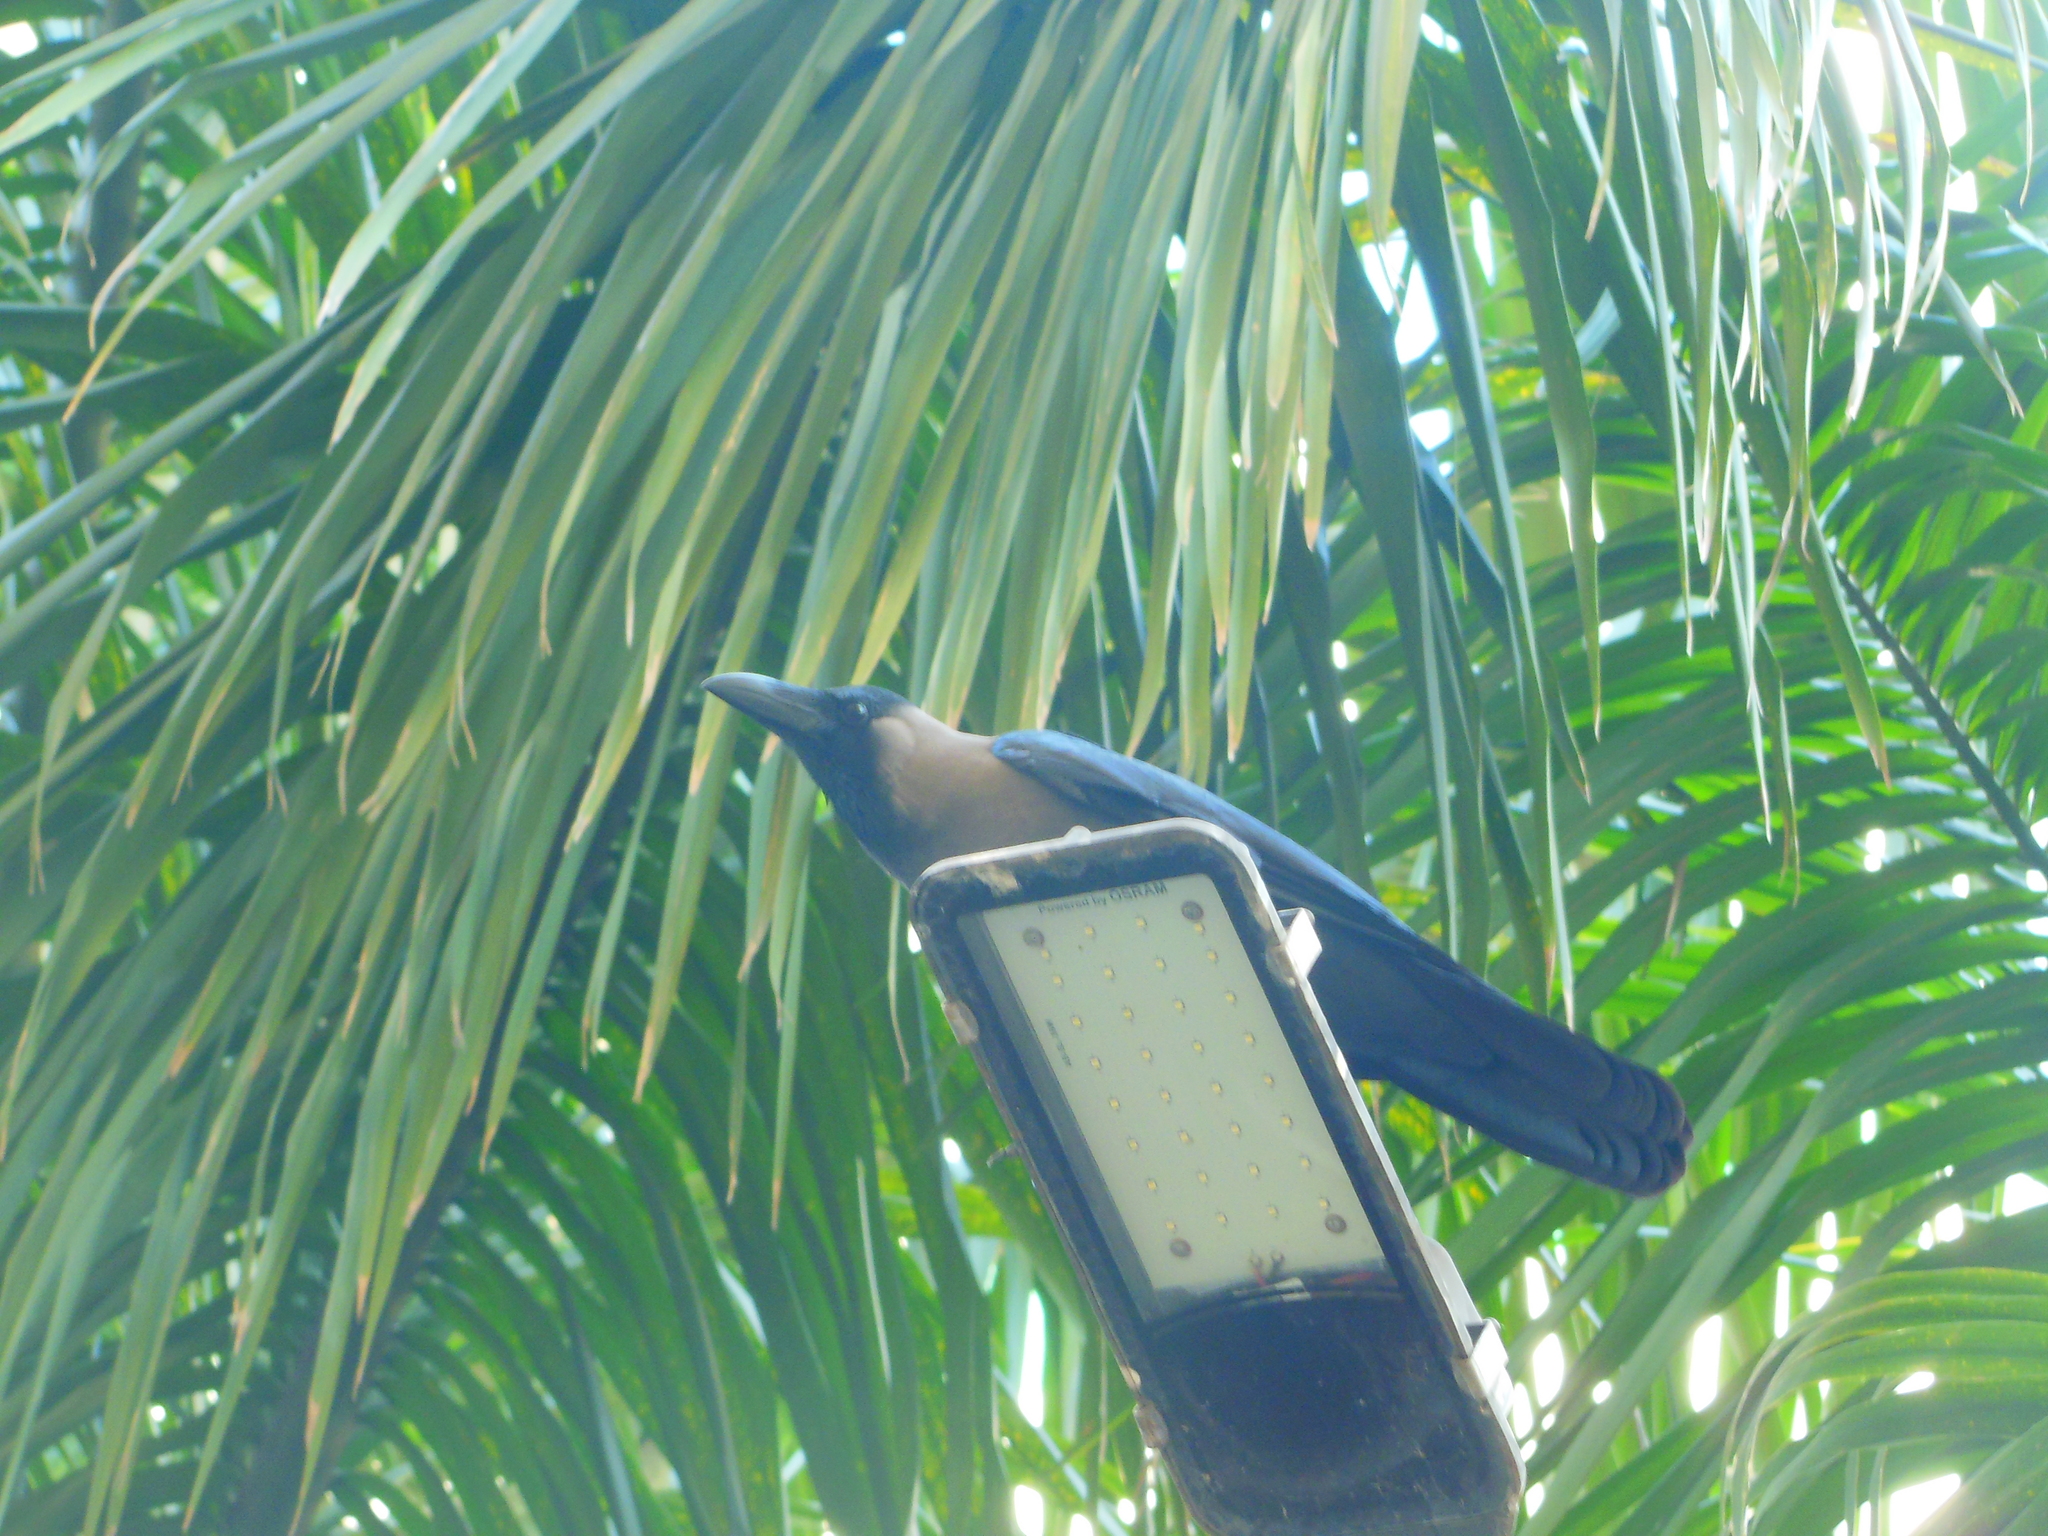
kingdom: Animalia
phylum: Chordata
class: Aves
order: Passeriformes
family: Corvidae
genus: Corvus
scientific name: Corvus splendens
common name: House crow
